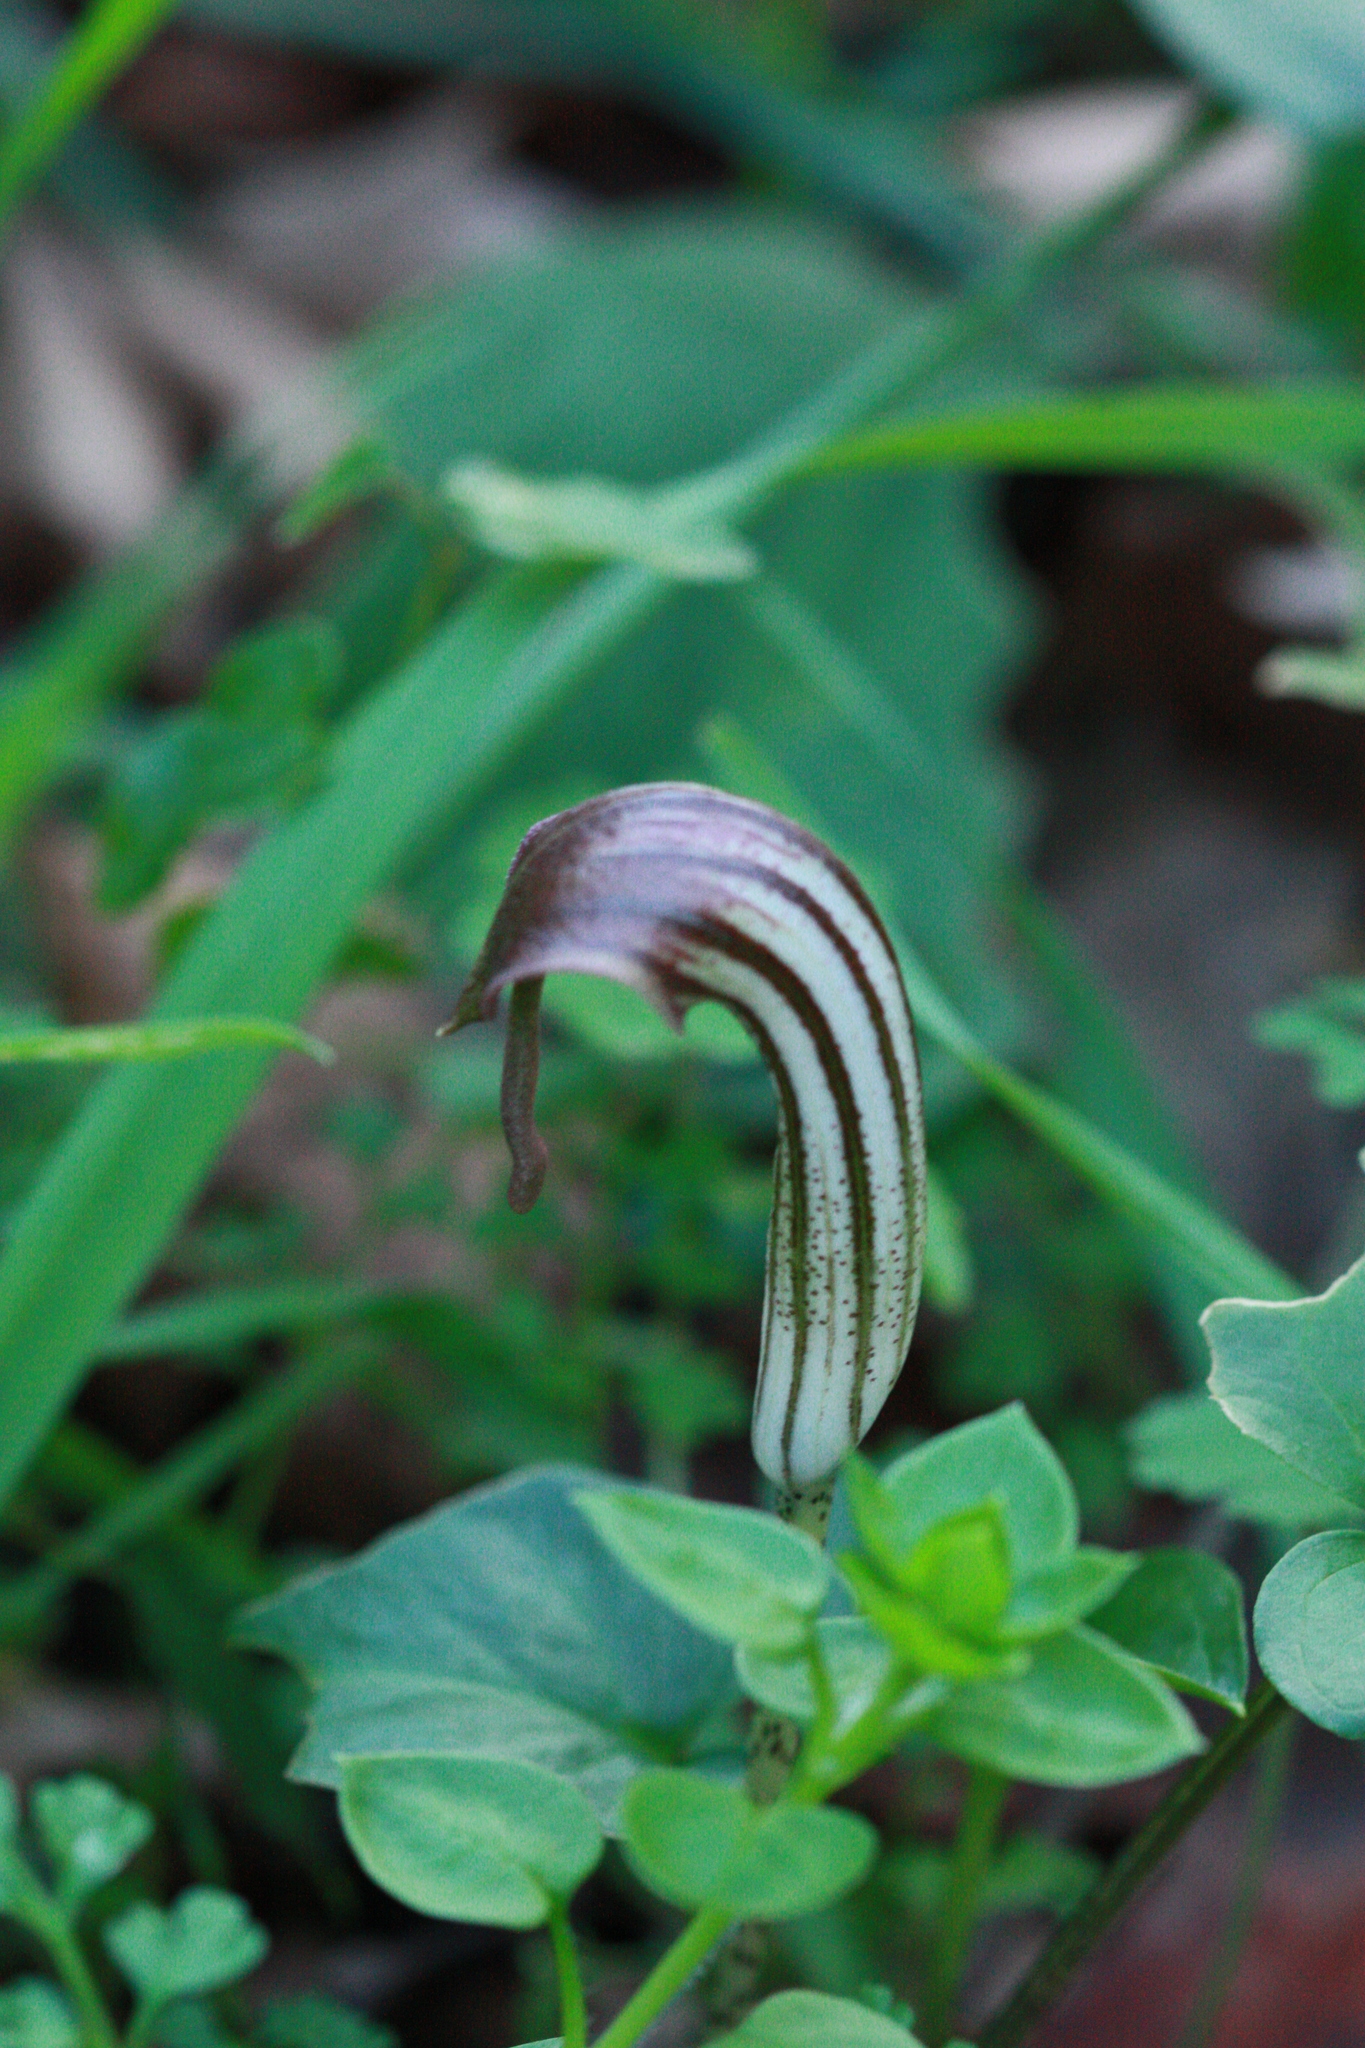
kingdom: Plantae
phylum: Tracheophyta
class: Liliopsida
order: Alismatales
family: Araceae
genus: Arisarum
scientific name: Arisarum vulgare
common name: Common arisarum
